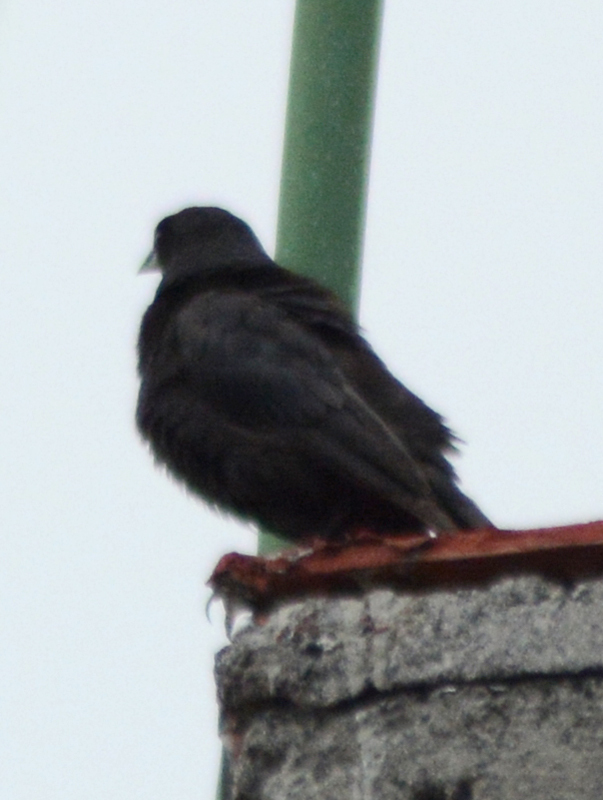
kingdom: Animalia
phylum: Chordata
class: Aves
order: Passeriformes
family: Icteridae
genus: Molothrus
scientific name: Molothrus aeneus
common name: Bronzed cowbird
